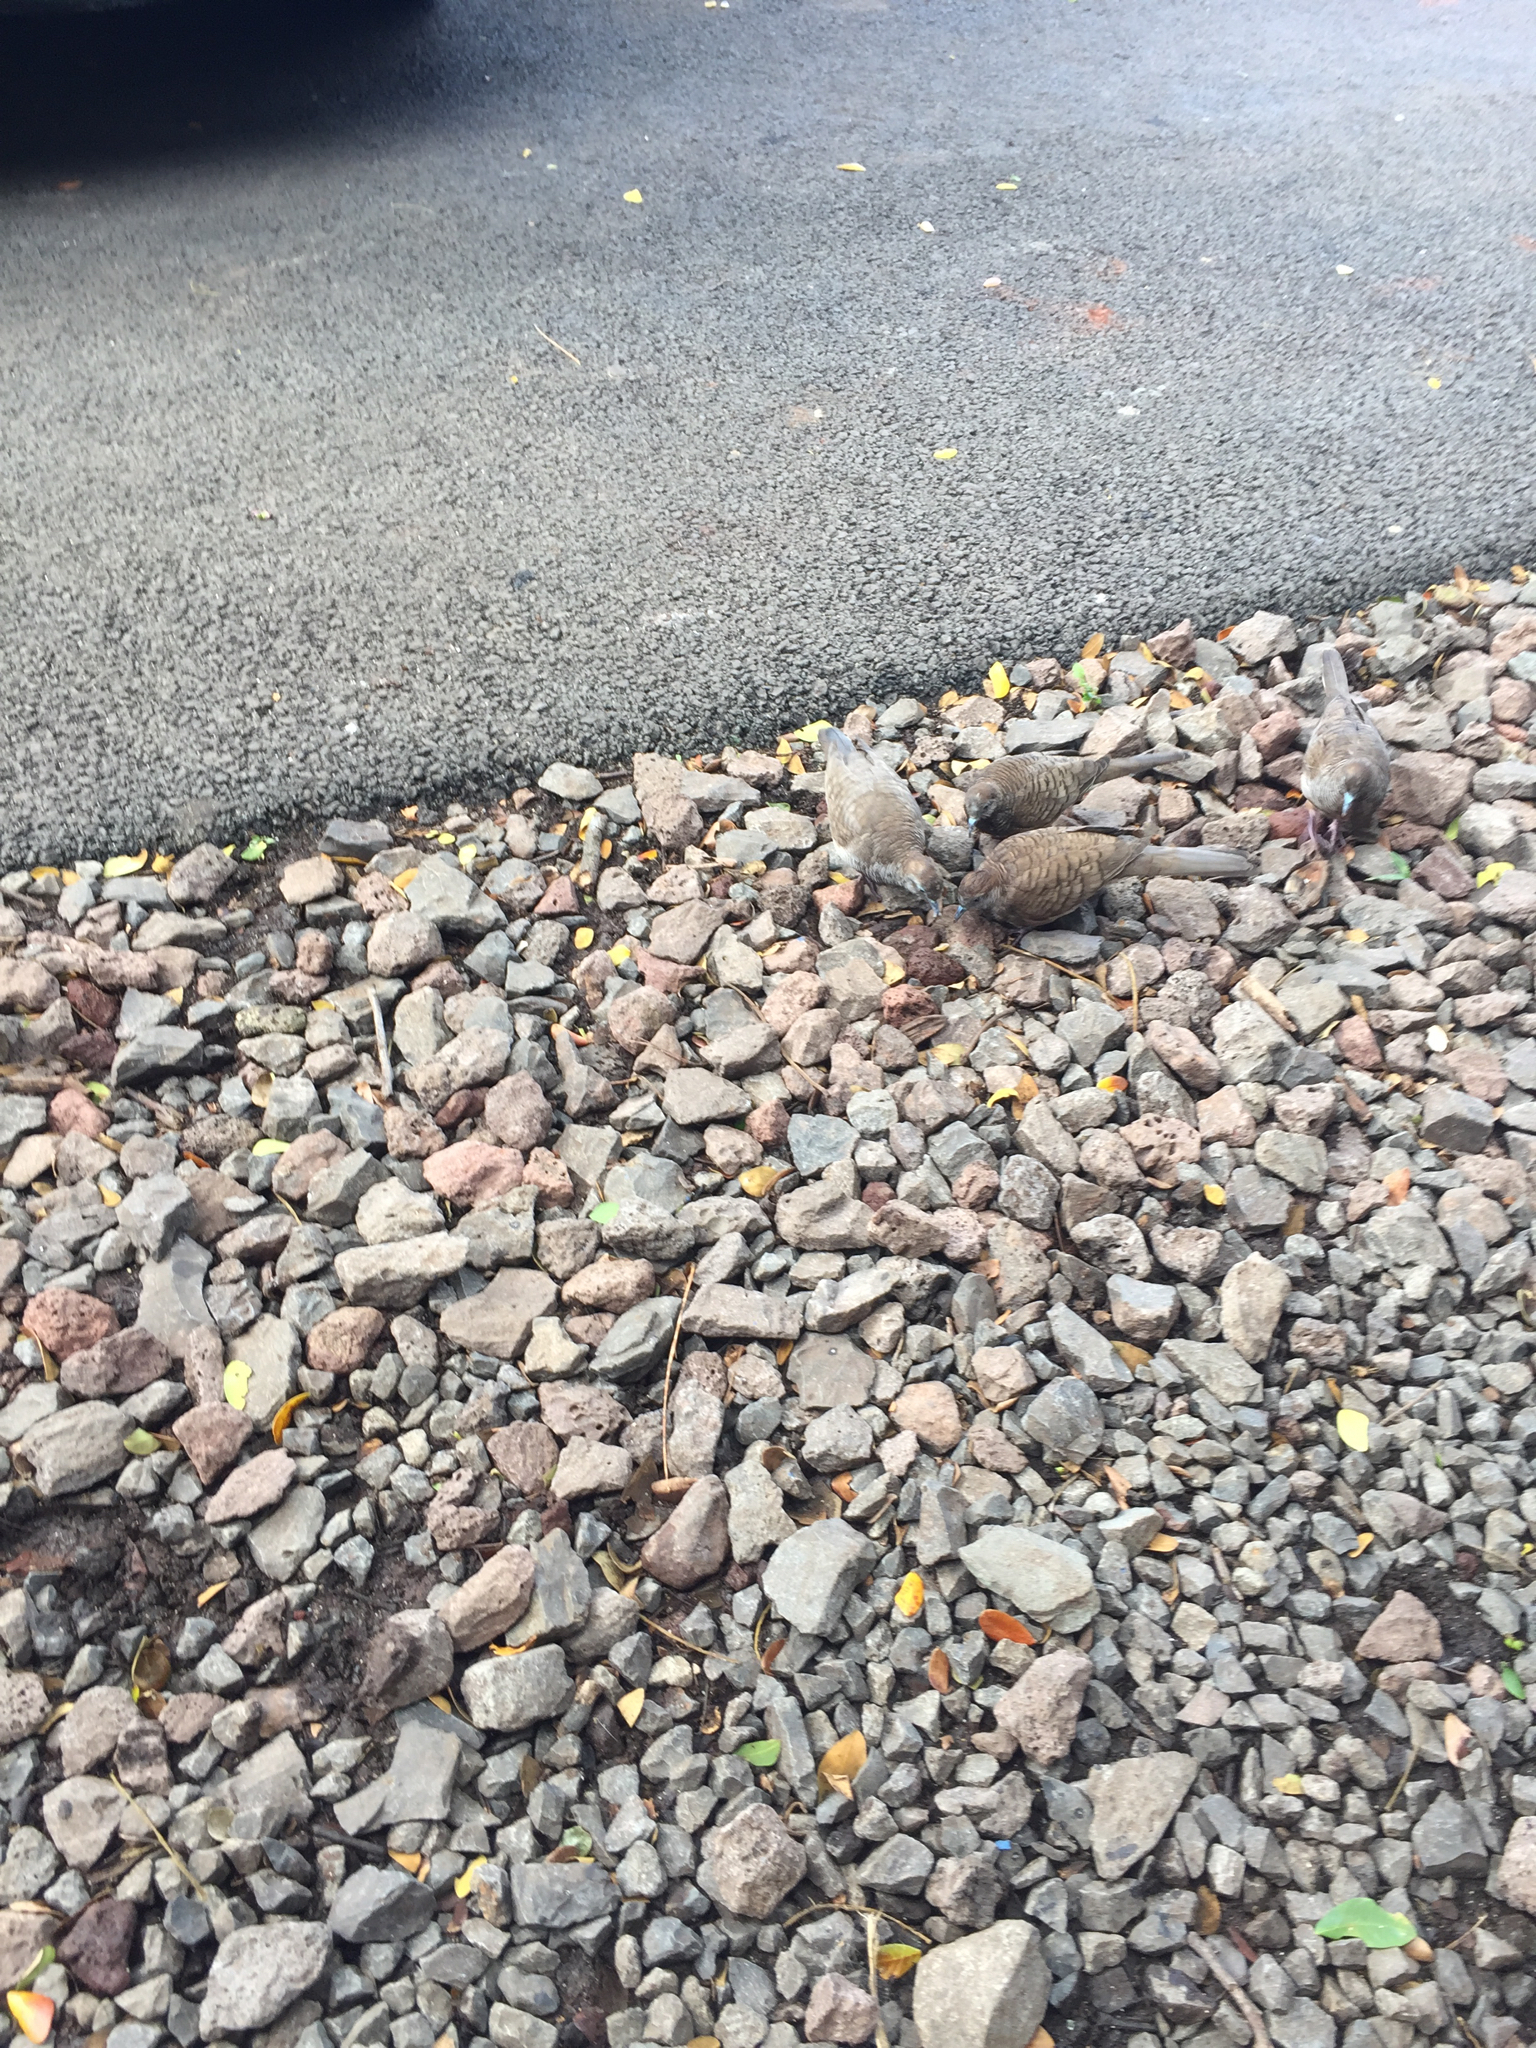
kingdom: Animalia
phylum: Chordata
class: Aves
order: Columbiformes
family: Columbidae
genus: Geopelia
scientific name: Geopelia striata
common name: Zebra dove
